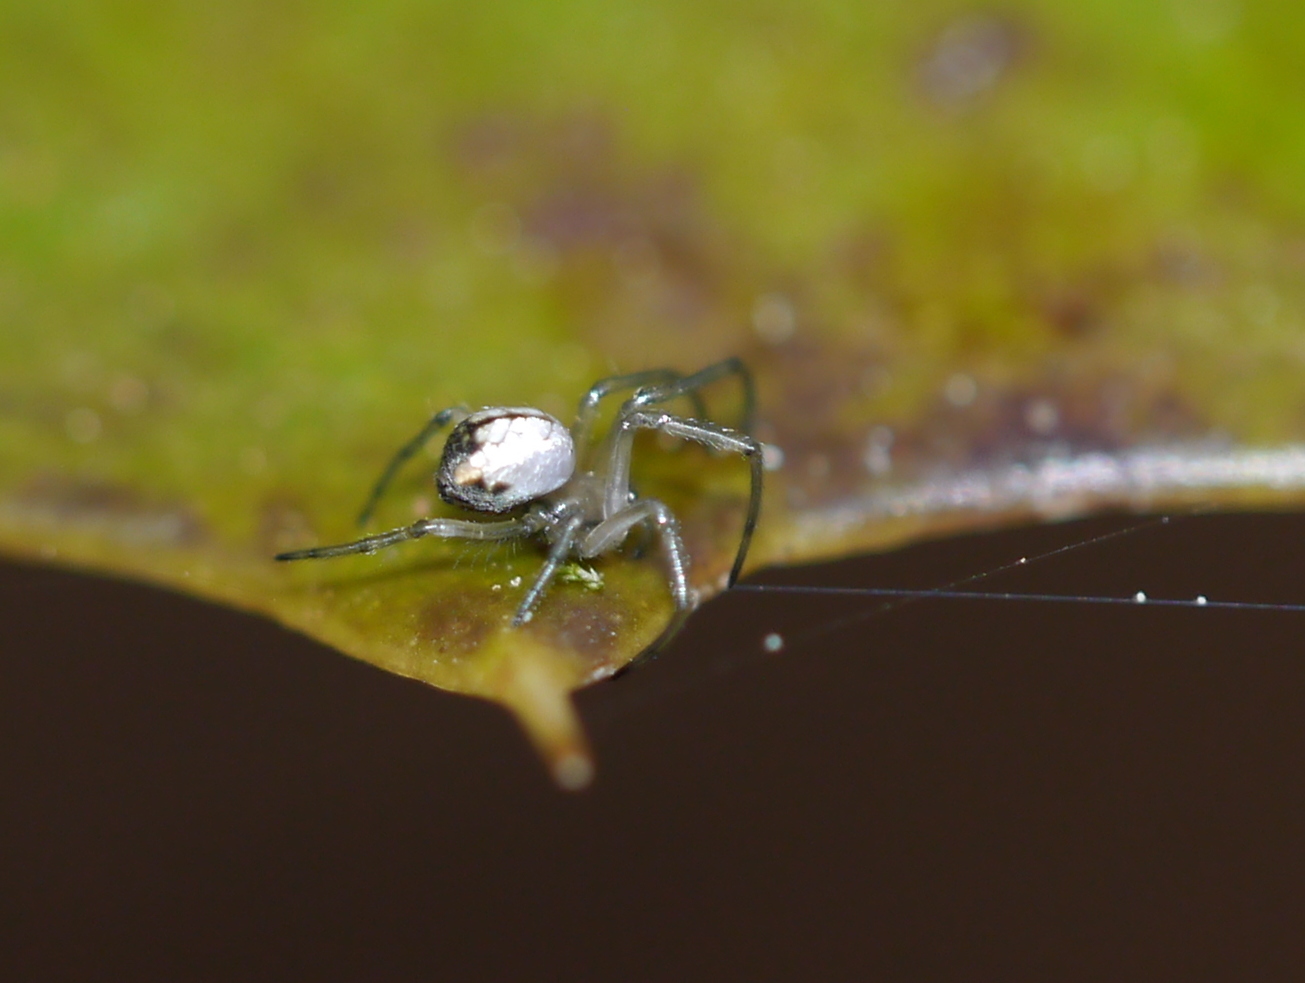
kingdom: Animalia
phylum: Arthropoda
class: Arachnida
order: Araneae
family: Tetragnathidae
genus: Leucauge
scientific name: Leucauge venusta
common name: Longjawed orb weavers
